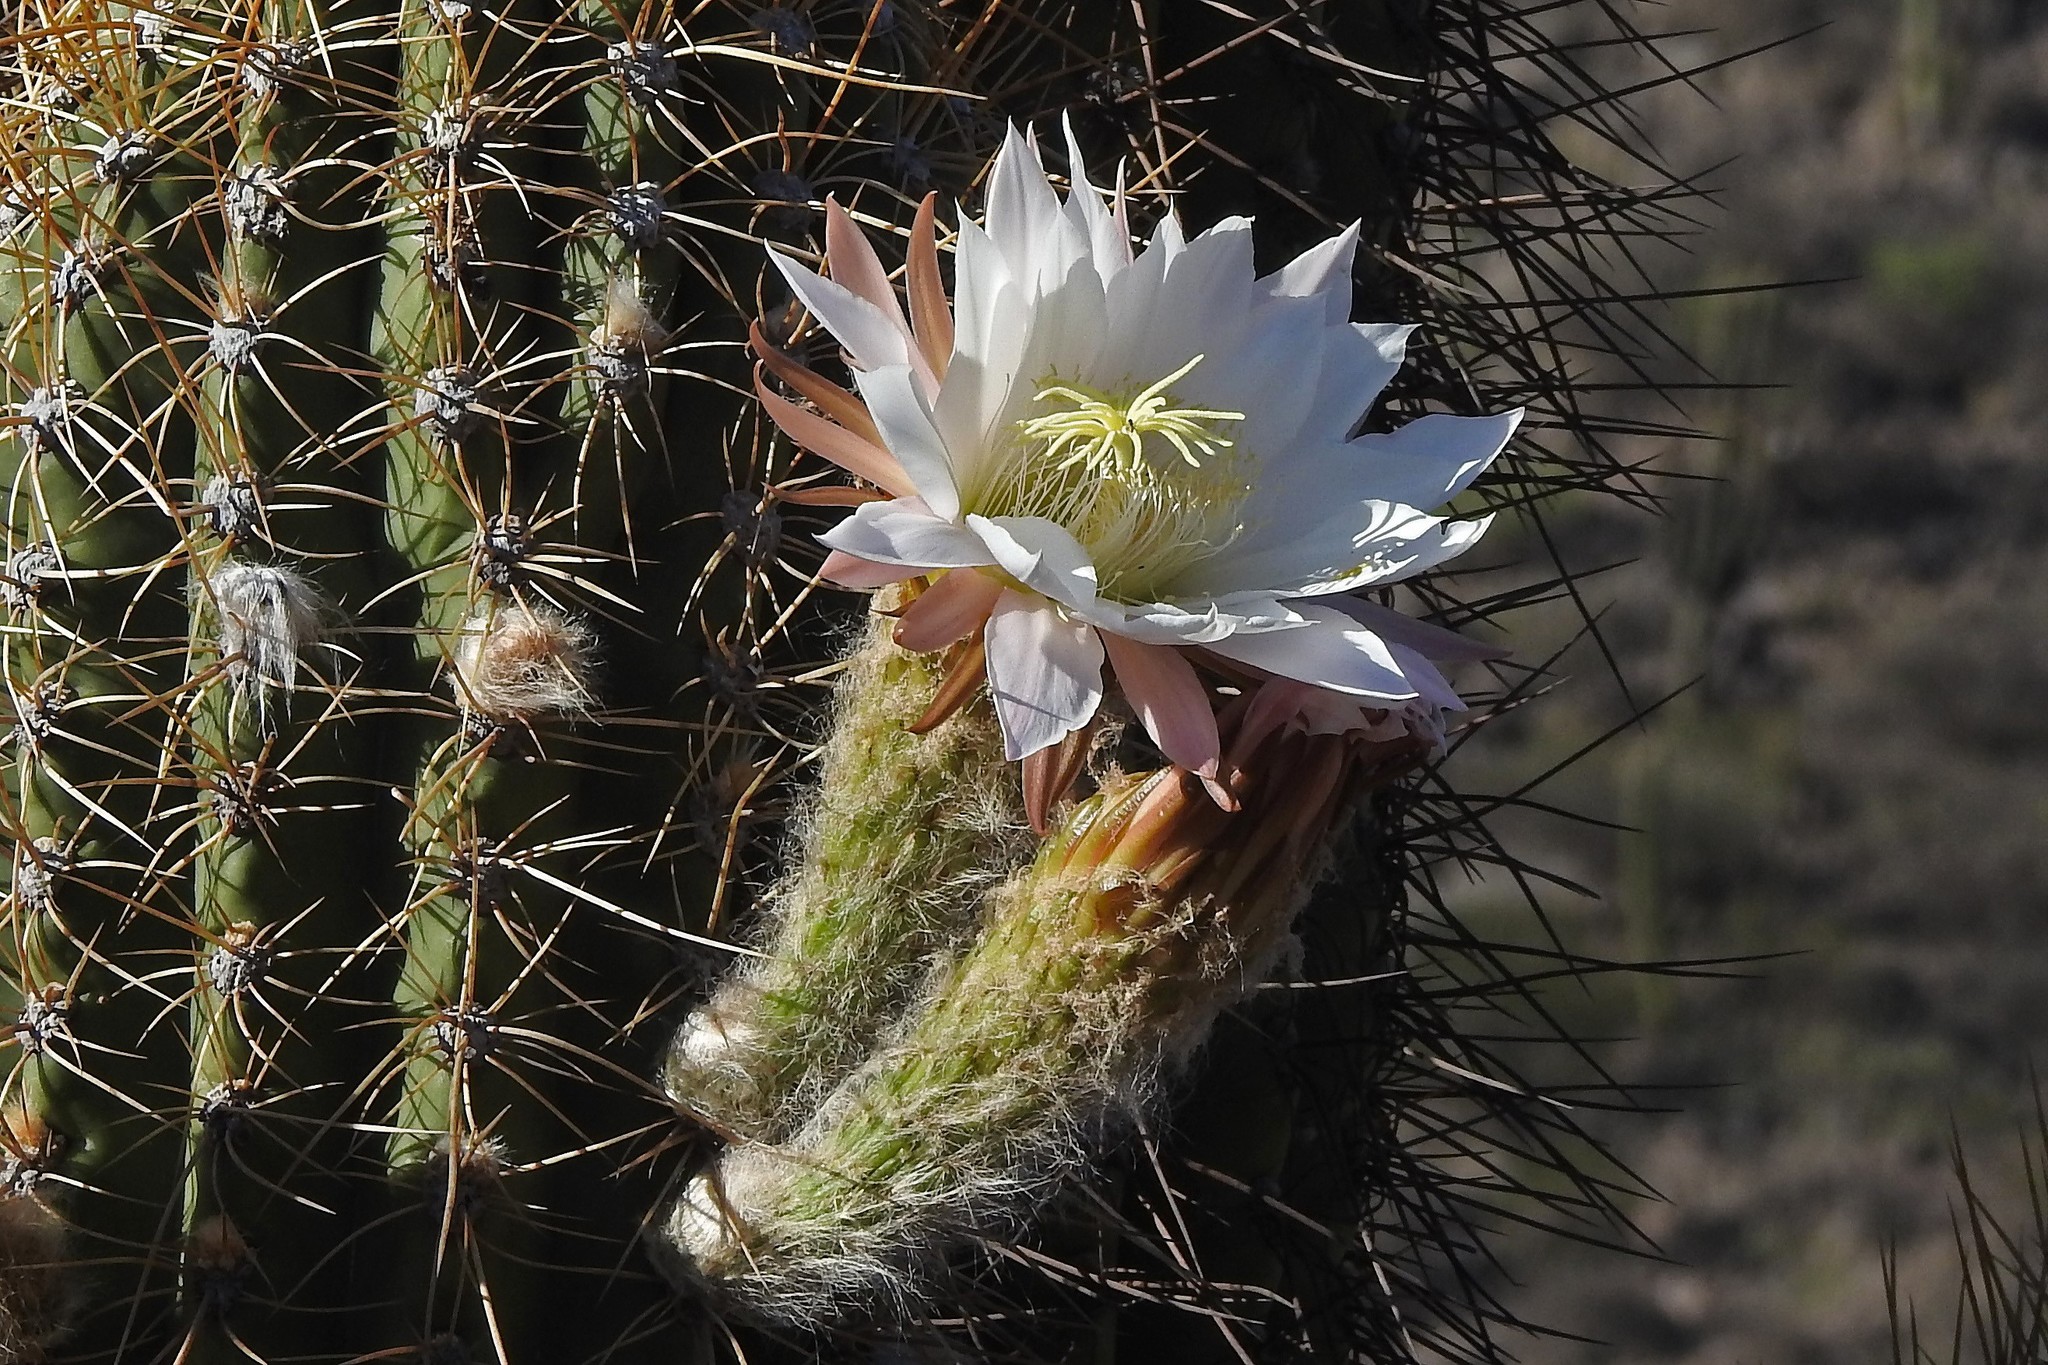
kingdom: Plantae
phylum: Tracheophyta
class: Magnoliopsida
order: Caryophyllales
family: Cactaceae
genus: Leucostele
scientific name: Leucostele terscheckii
